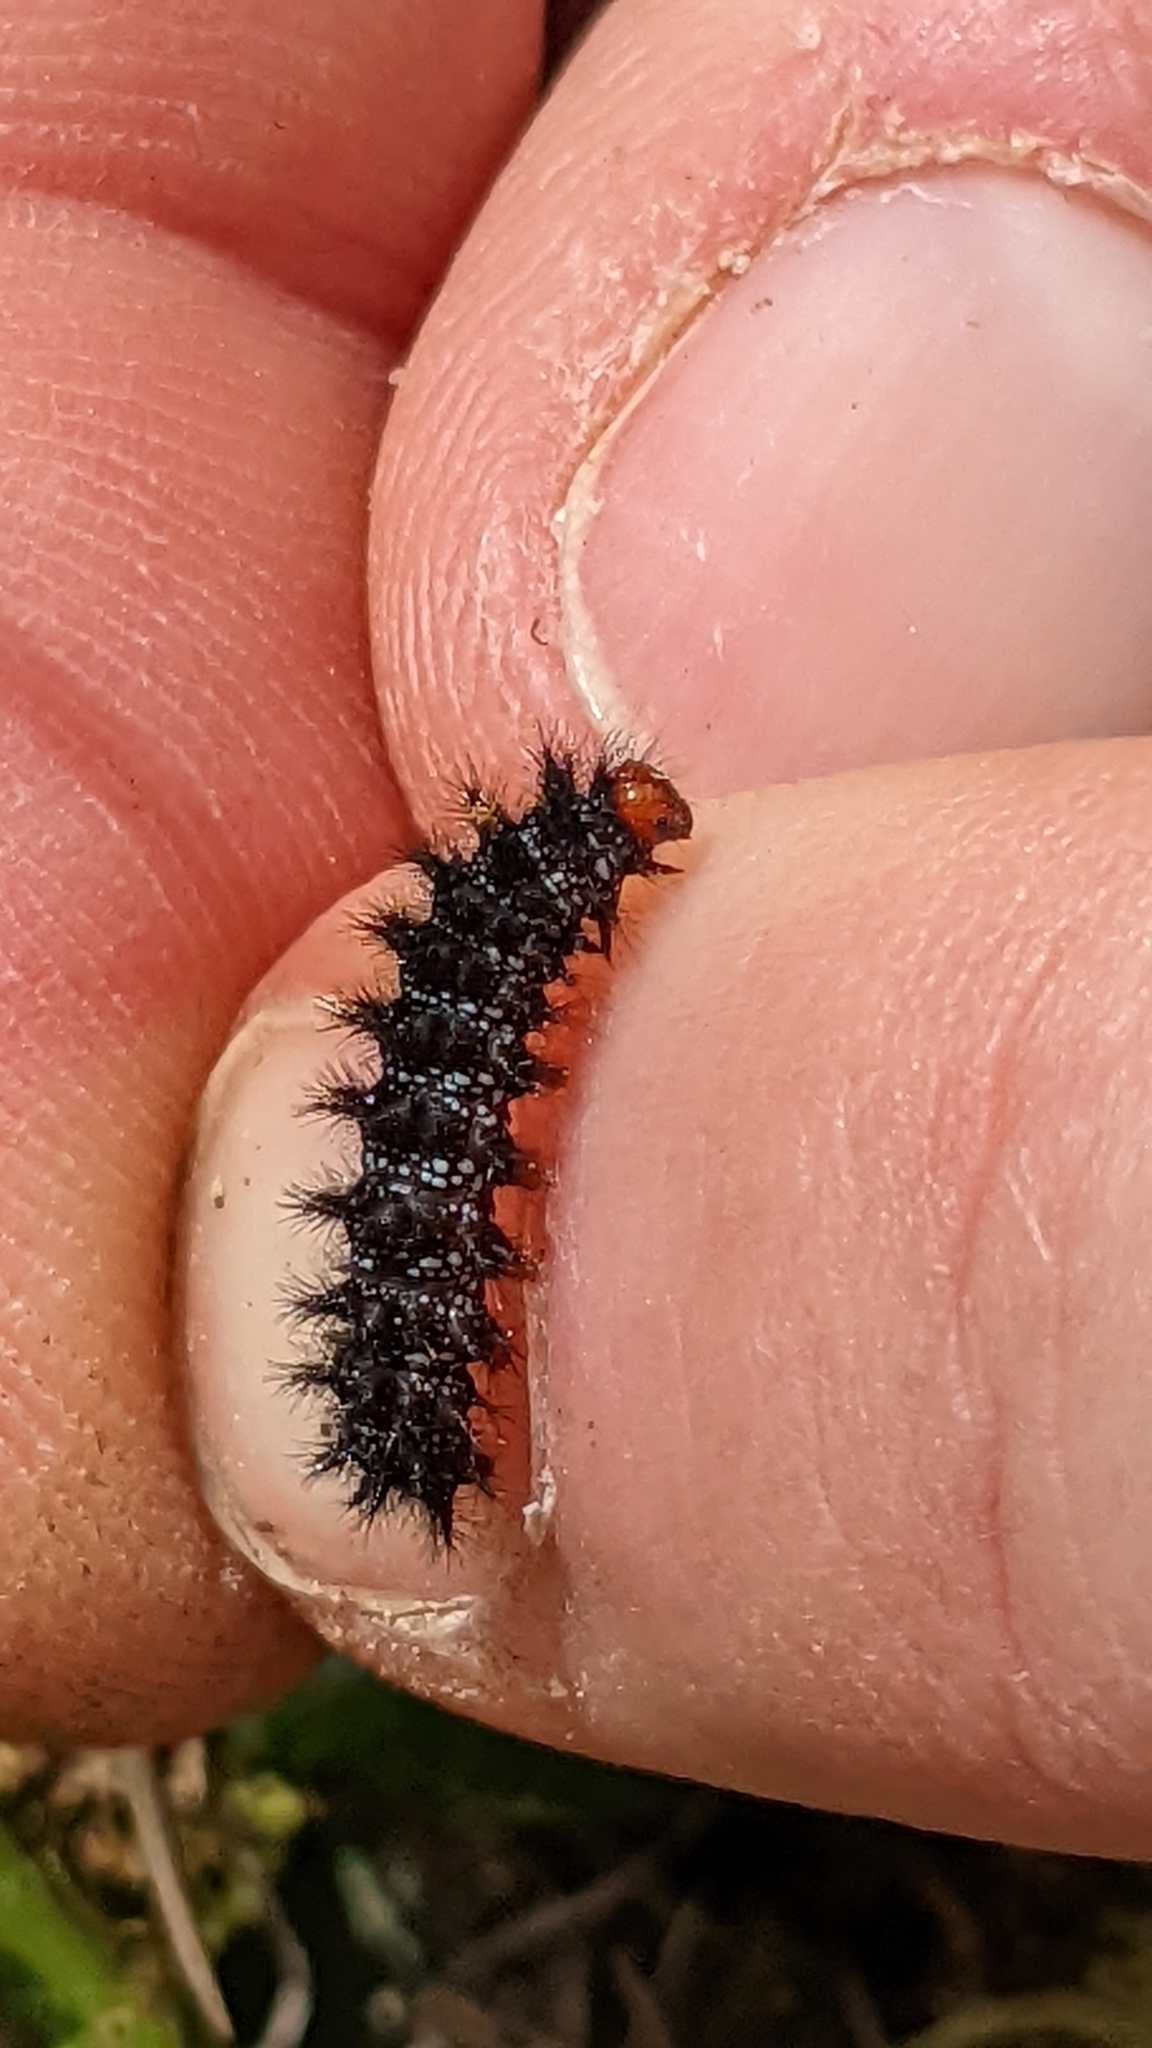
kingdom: Animalia
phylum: Arthropoda
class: Insecta
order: Lepidoptera
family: Nymphalidae
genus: Melitaea
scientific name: Melitaea cinxia
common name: Glanville fritillary
